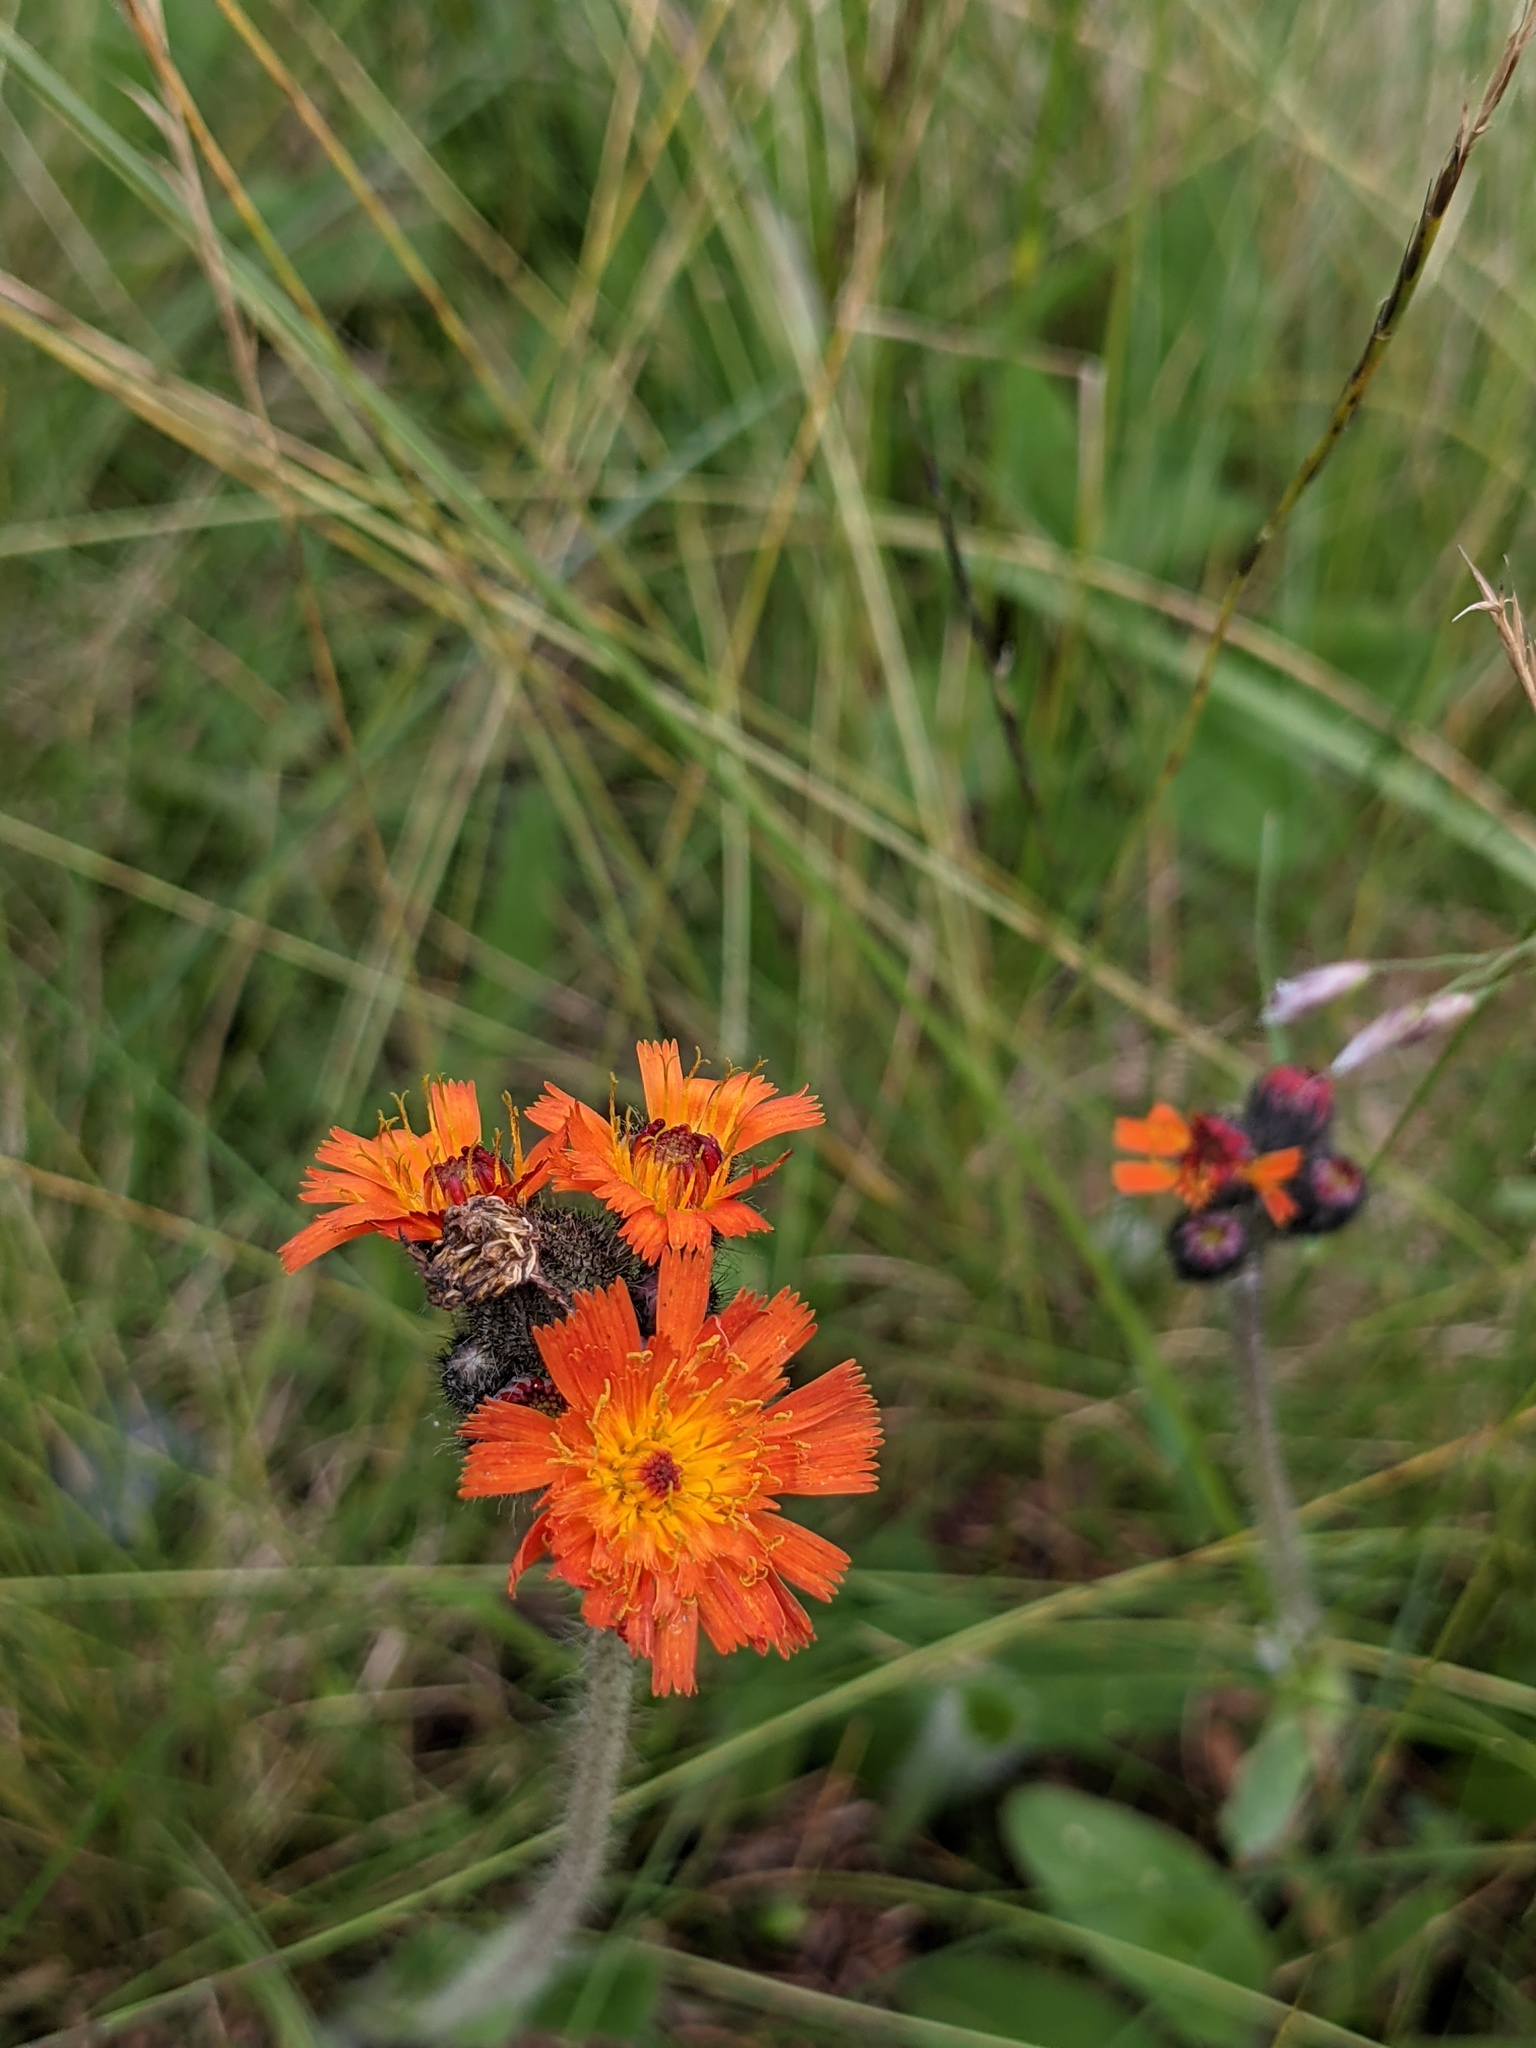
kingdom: Plantae
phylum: Tracheophyta
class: Magnoliopsida
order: Asterales
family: Asteraceae
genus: Pilosella
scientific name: Pilosella aurantiaca
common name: Fox-and-cubs
